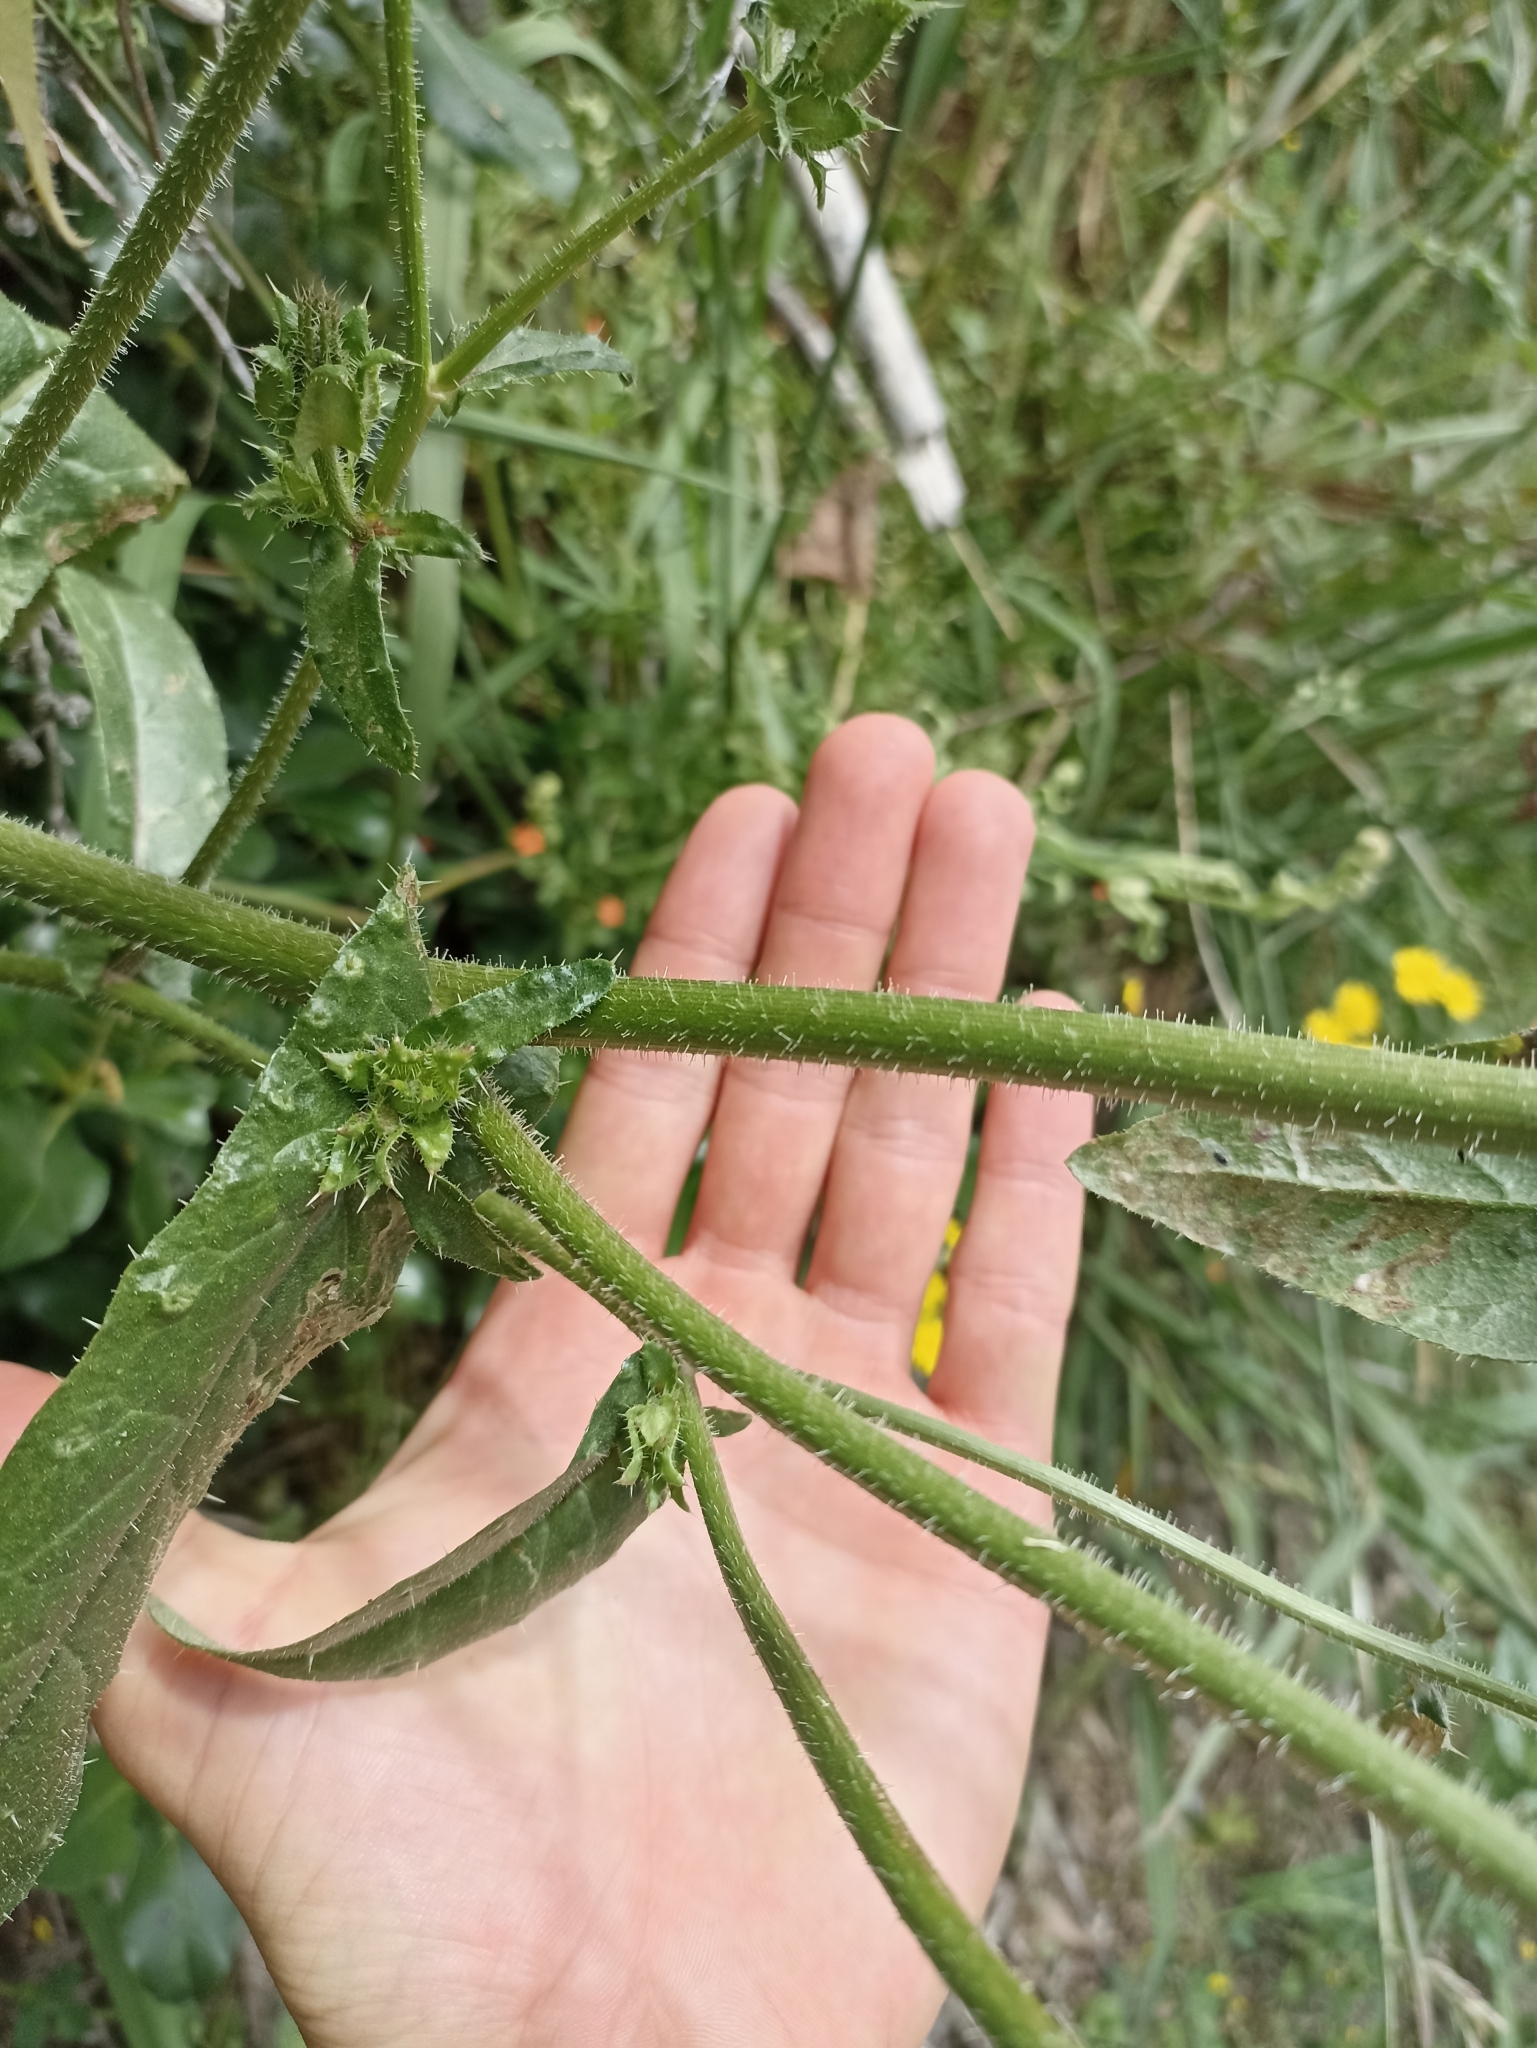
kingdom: Plantae
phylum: Tracheophyta
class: Magnoliopsida
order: Asterales
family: Asteraceae
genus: Helminthotheca
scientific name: Helminthotheca echioides
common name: Ox-tongue
